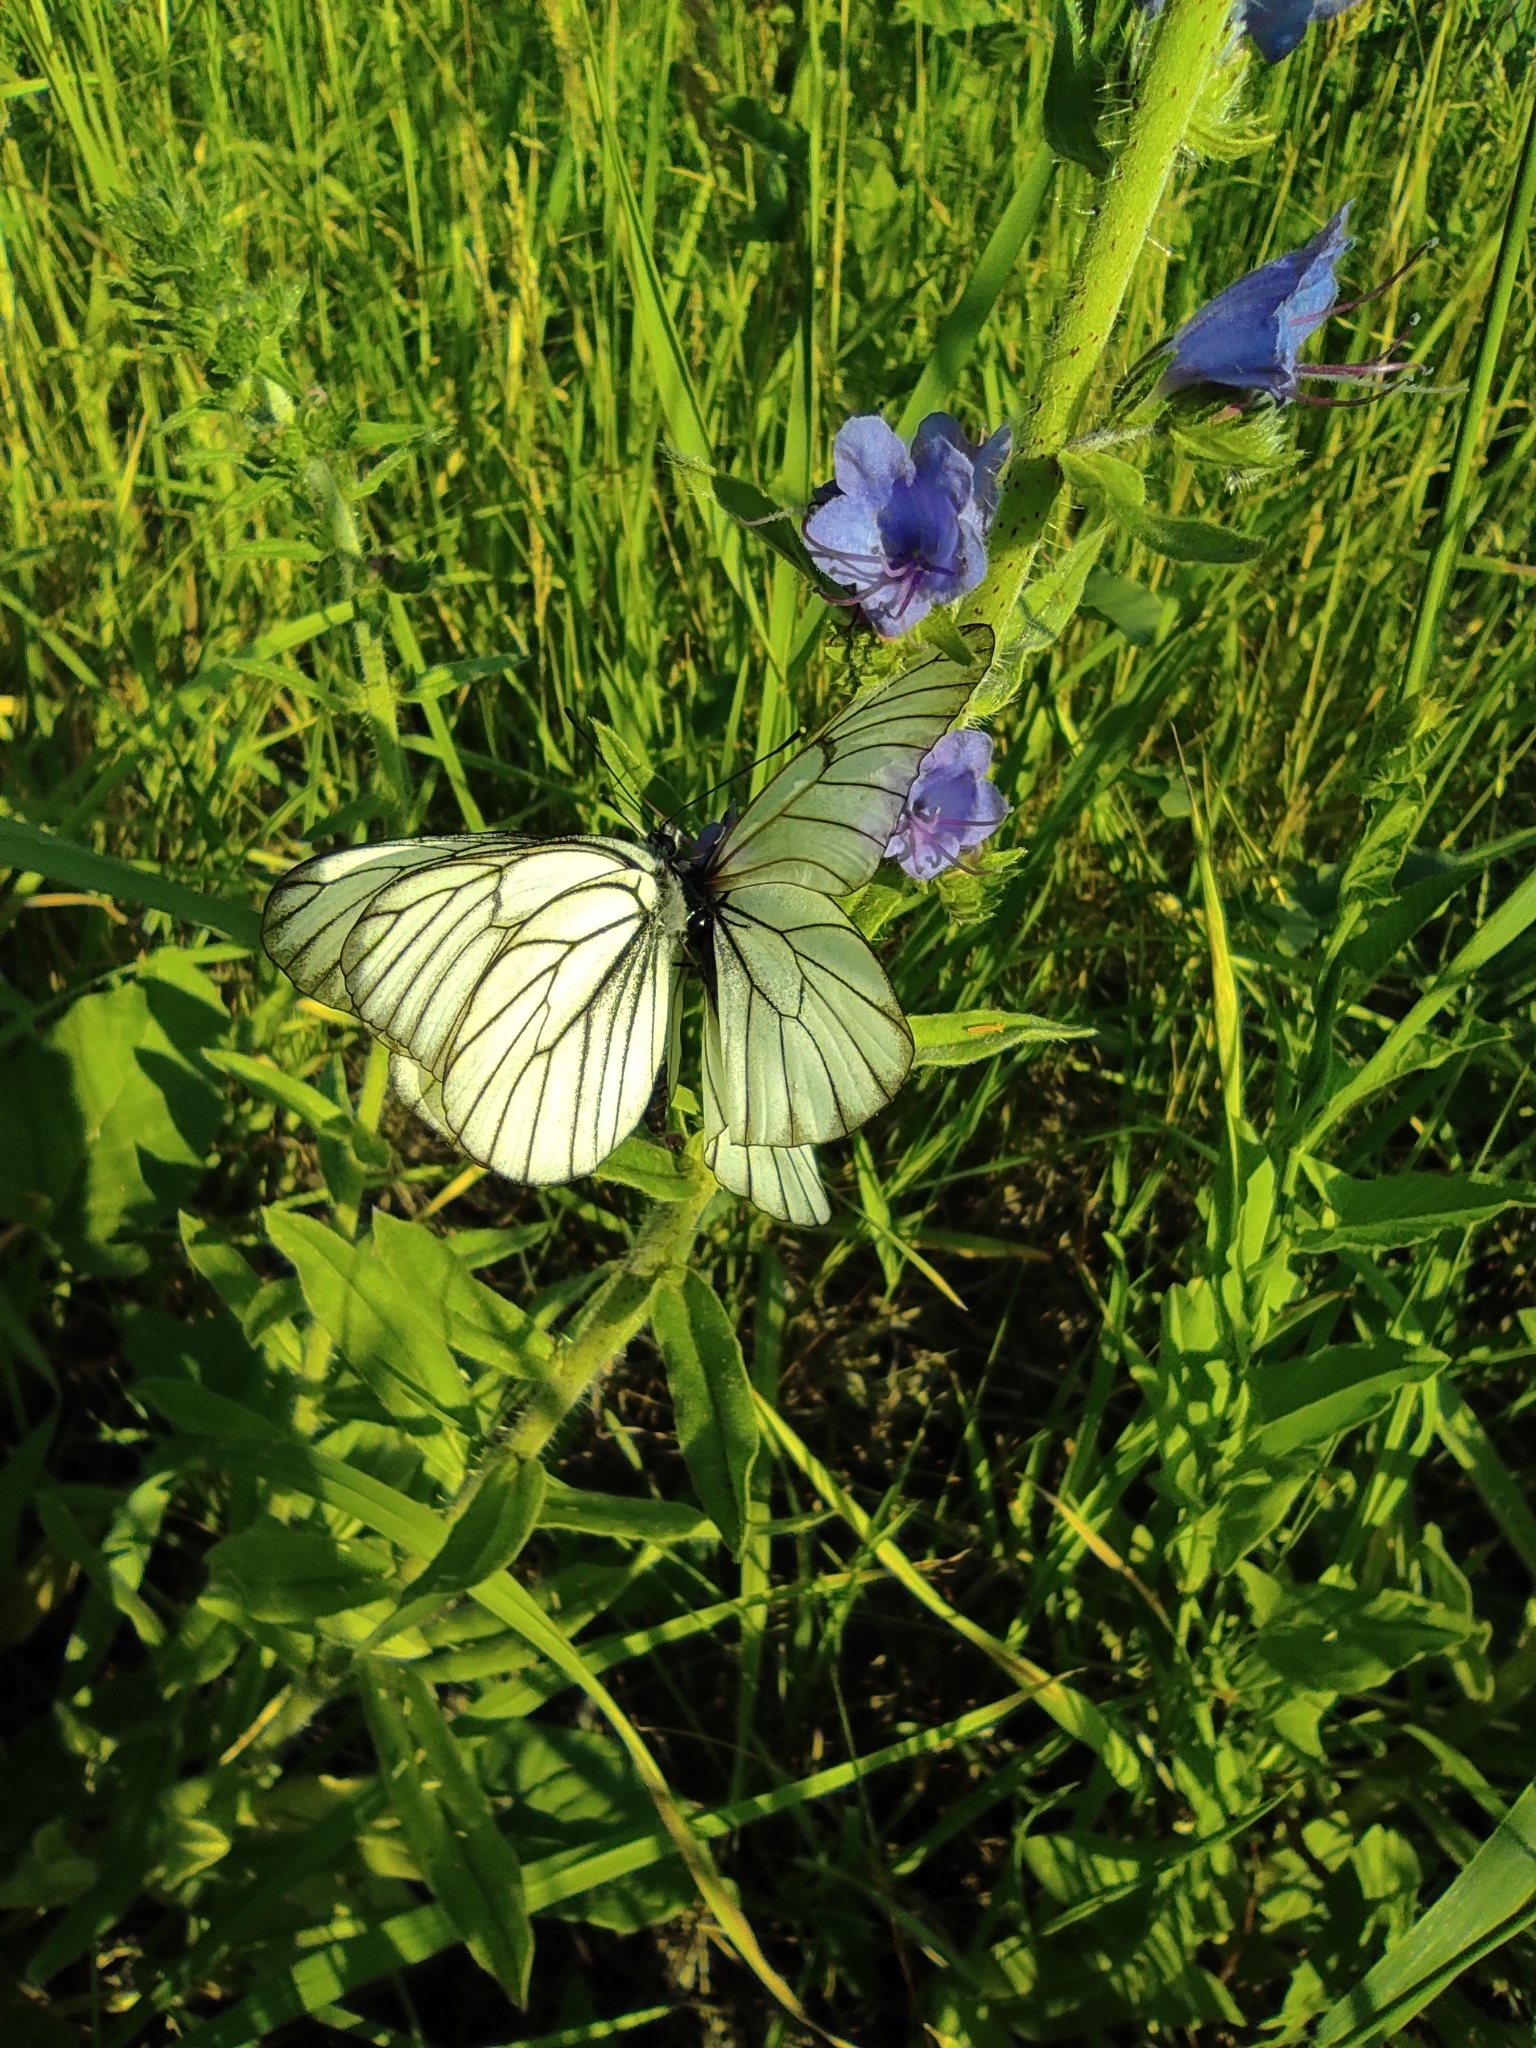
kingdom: Animalia
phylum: Arthropoda
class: Insecta
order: Lepidoptera
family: Pieridae
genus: Aporia
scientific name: Aporia crataegi
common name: Black-veined white
